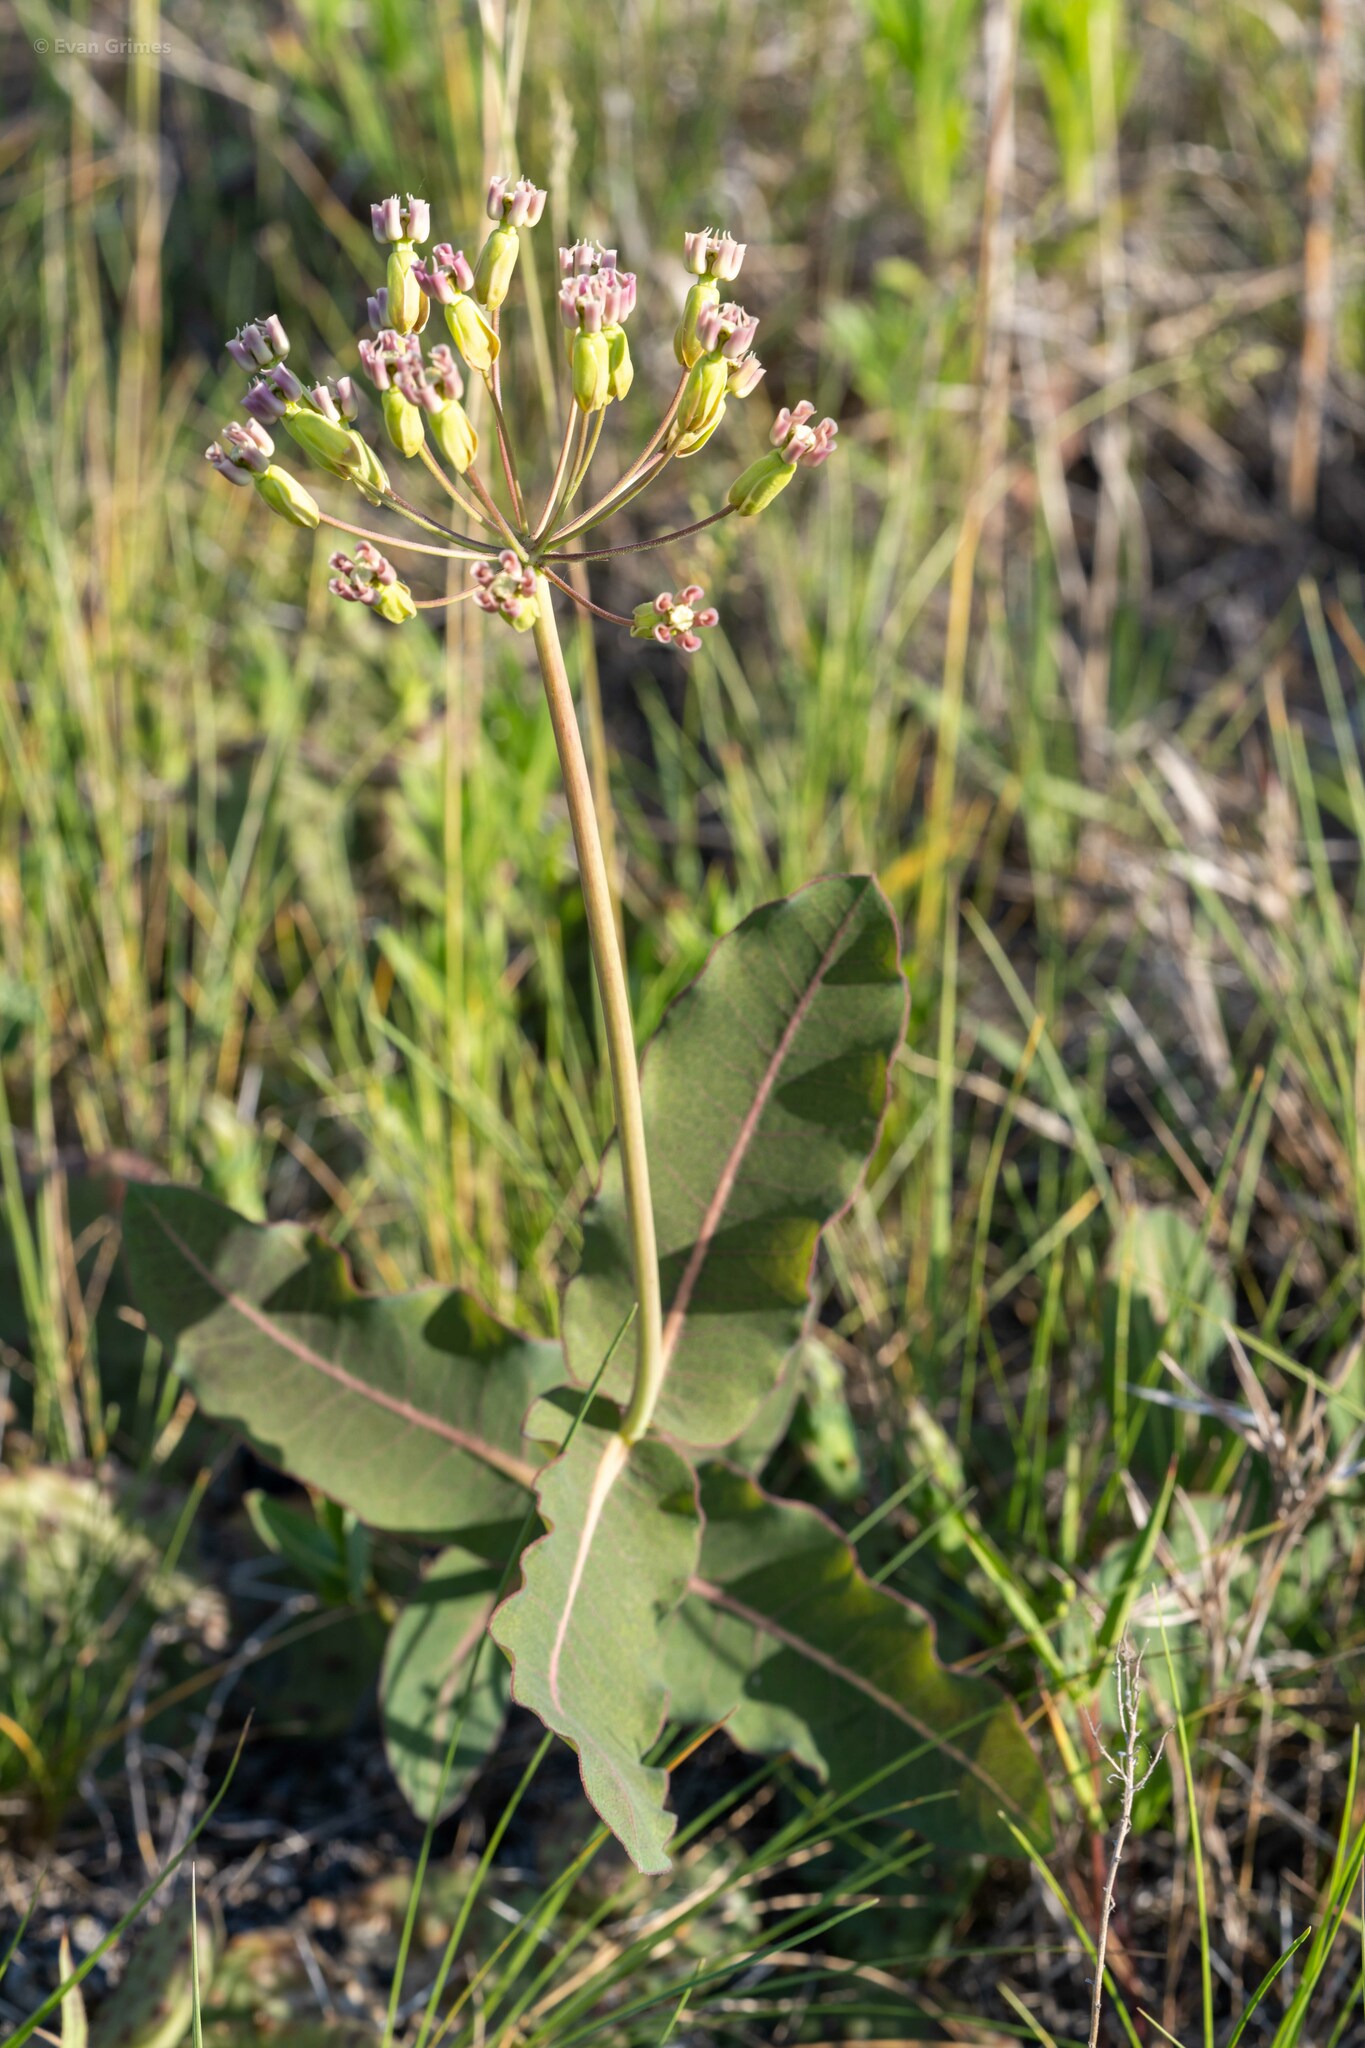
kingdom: Plantae
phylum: Tracheophyta
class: Magnoliopsida
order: Gentianales
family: Apocynaceae
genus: Asclepias
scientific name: Asclepias amplexicaulis
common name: Blunt-leaf milkweed
